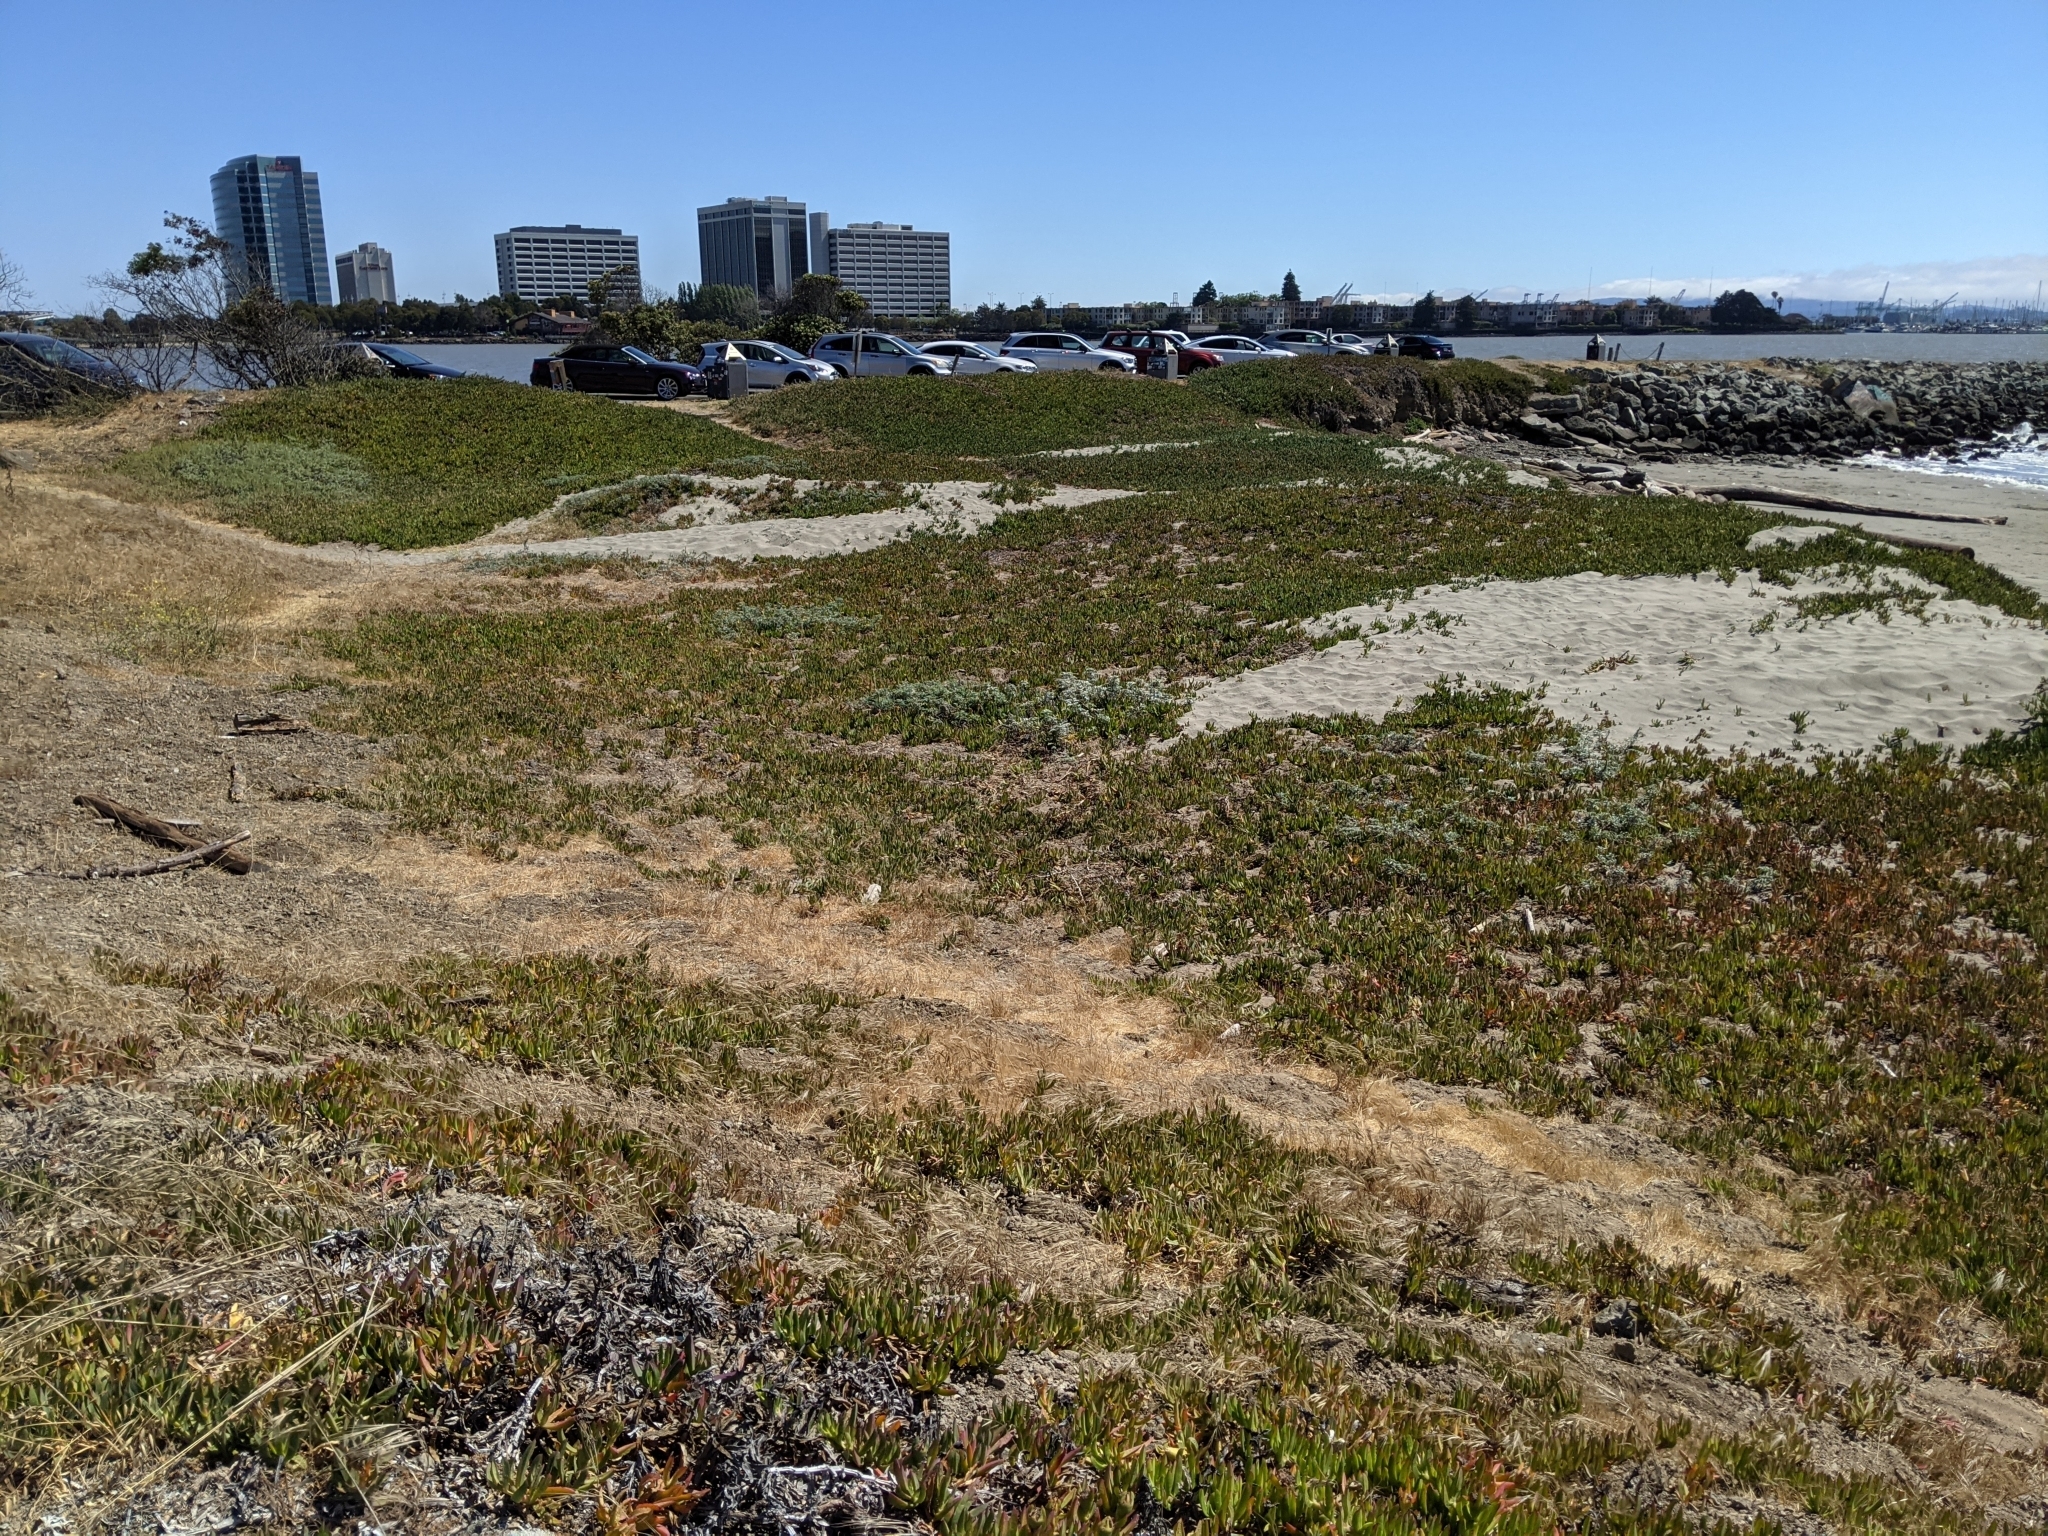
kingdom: Plantae
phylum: Tracheophyta
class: Magnoliopsida
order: Asterales
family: Asteraceae
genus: Ambrosia
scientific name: Ambrosia chamissonis
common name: Beachbur
